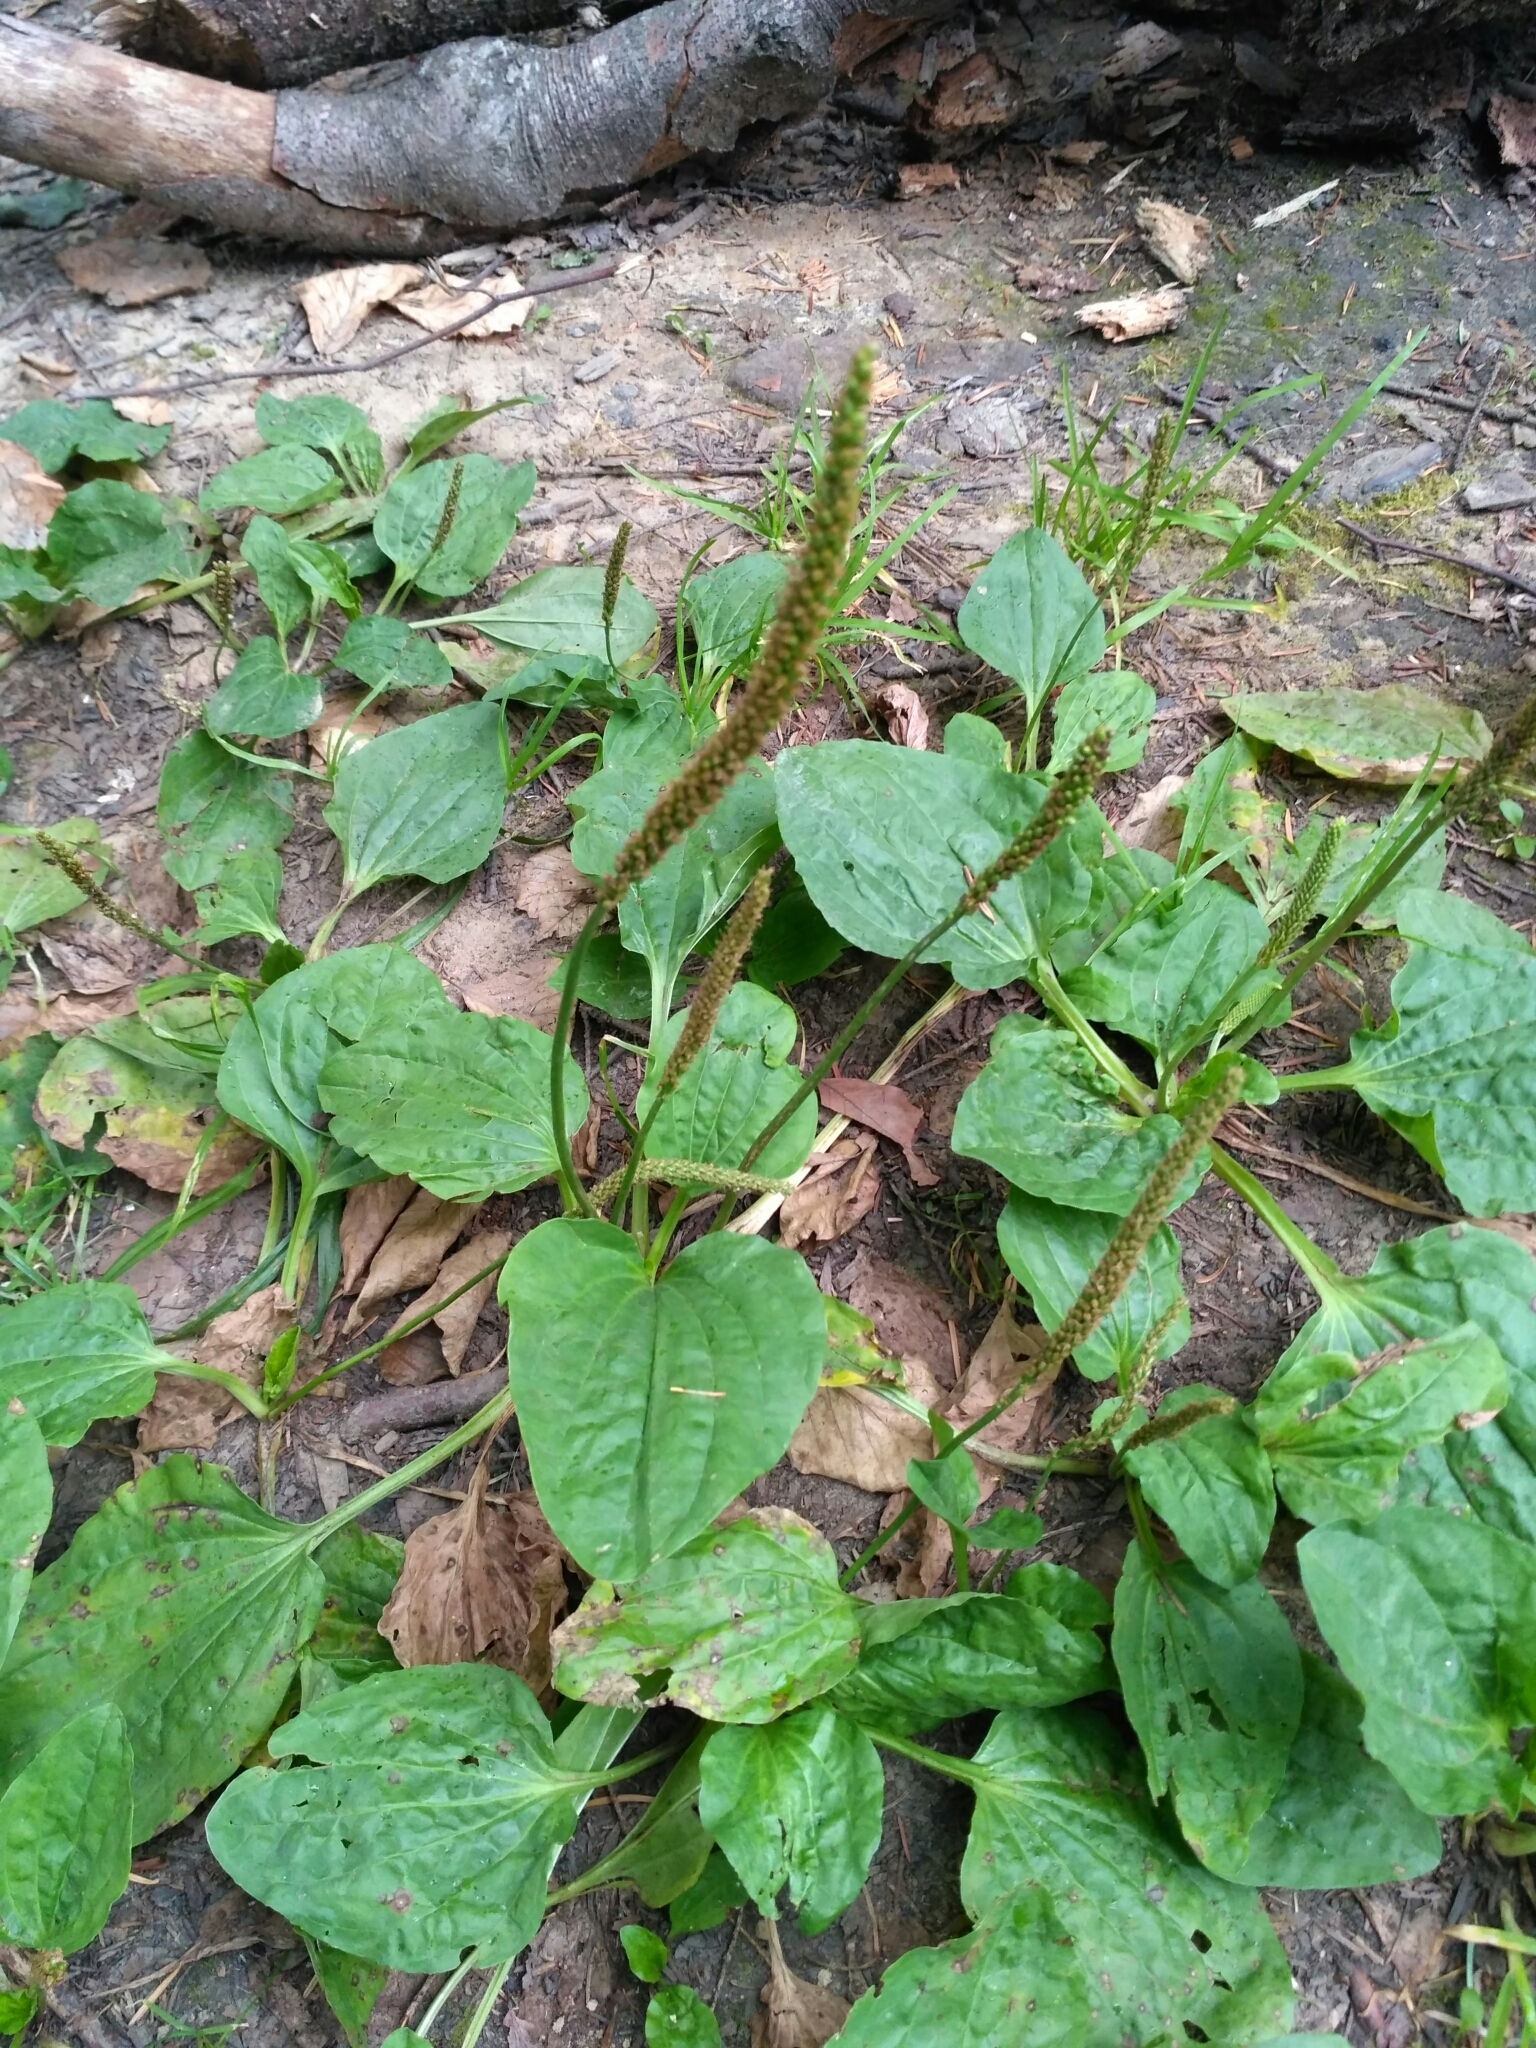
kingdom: Plantae
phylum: Tracheophyta
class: Magnoliopsida
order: Lamiales
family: Plantaginaceae
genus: Plantago
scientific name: Plantago major
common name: Common plantain
